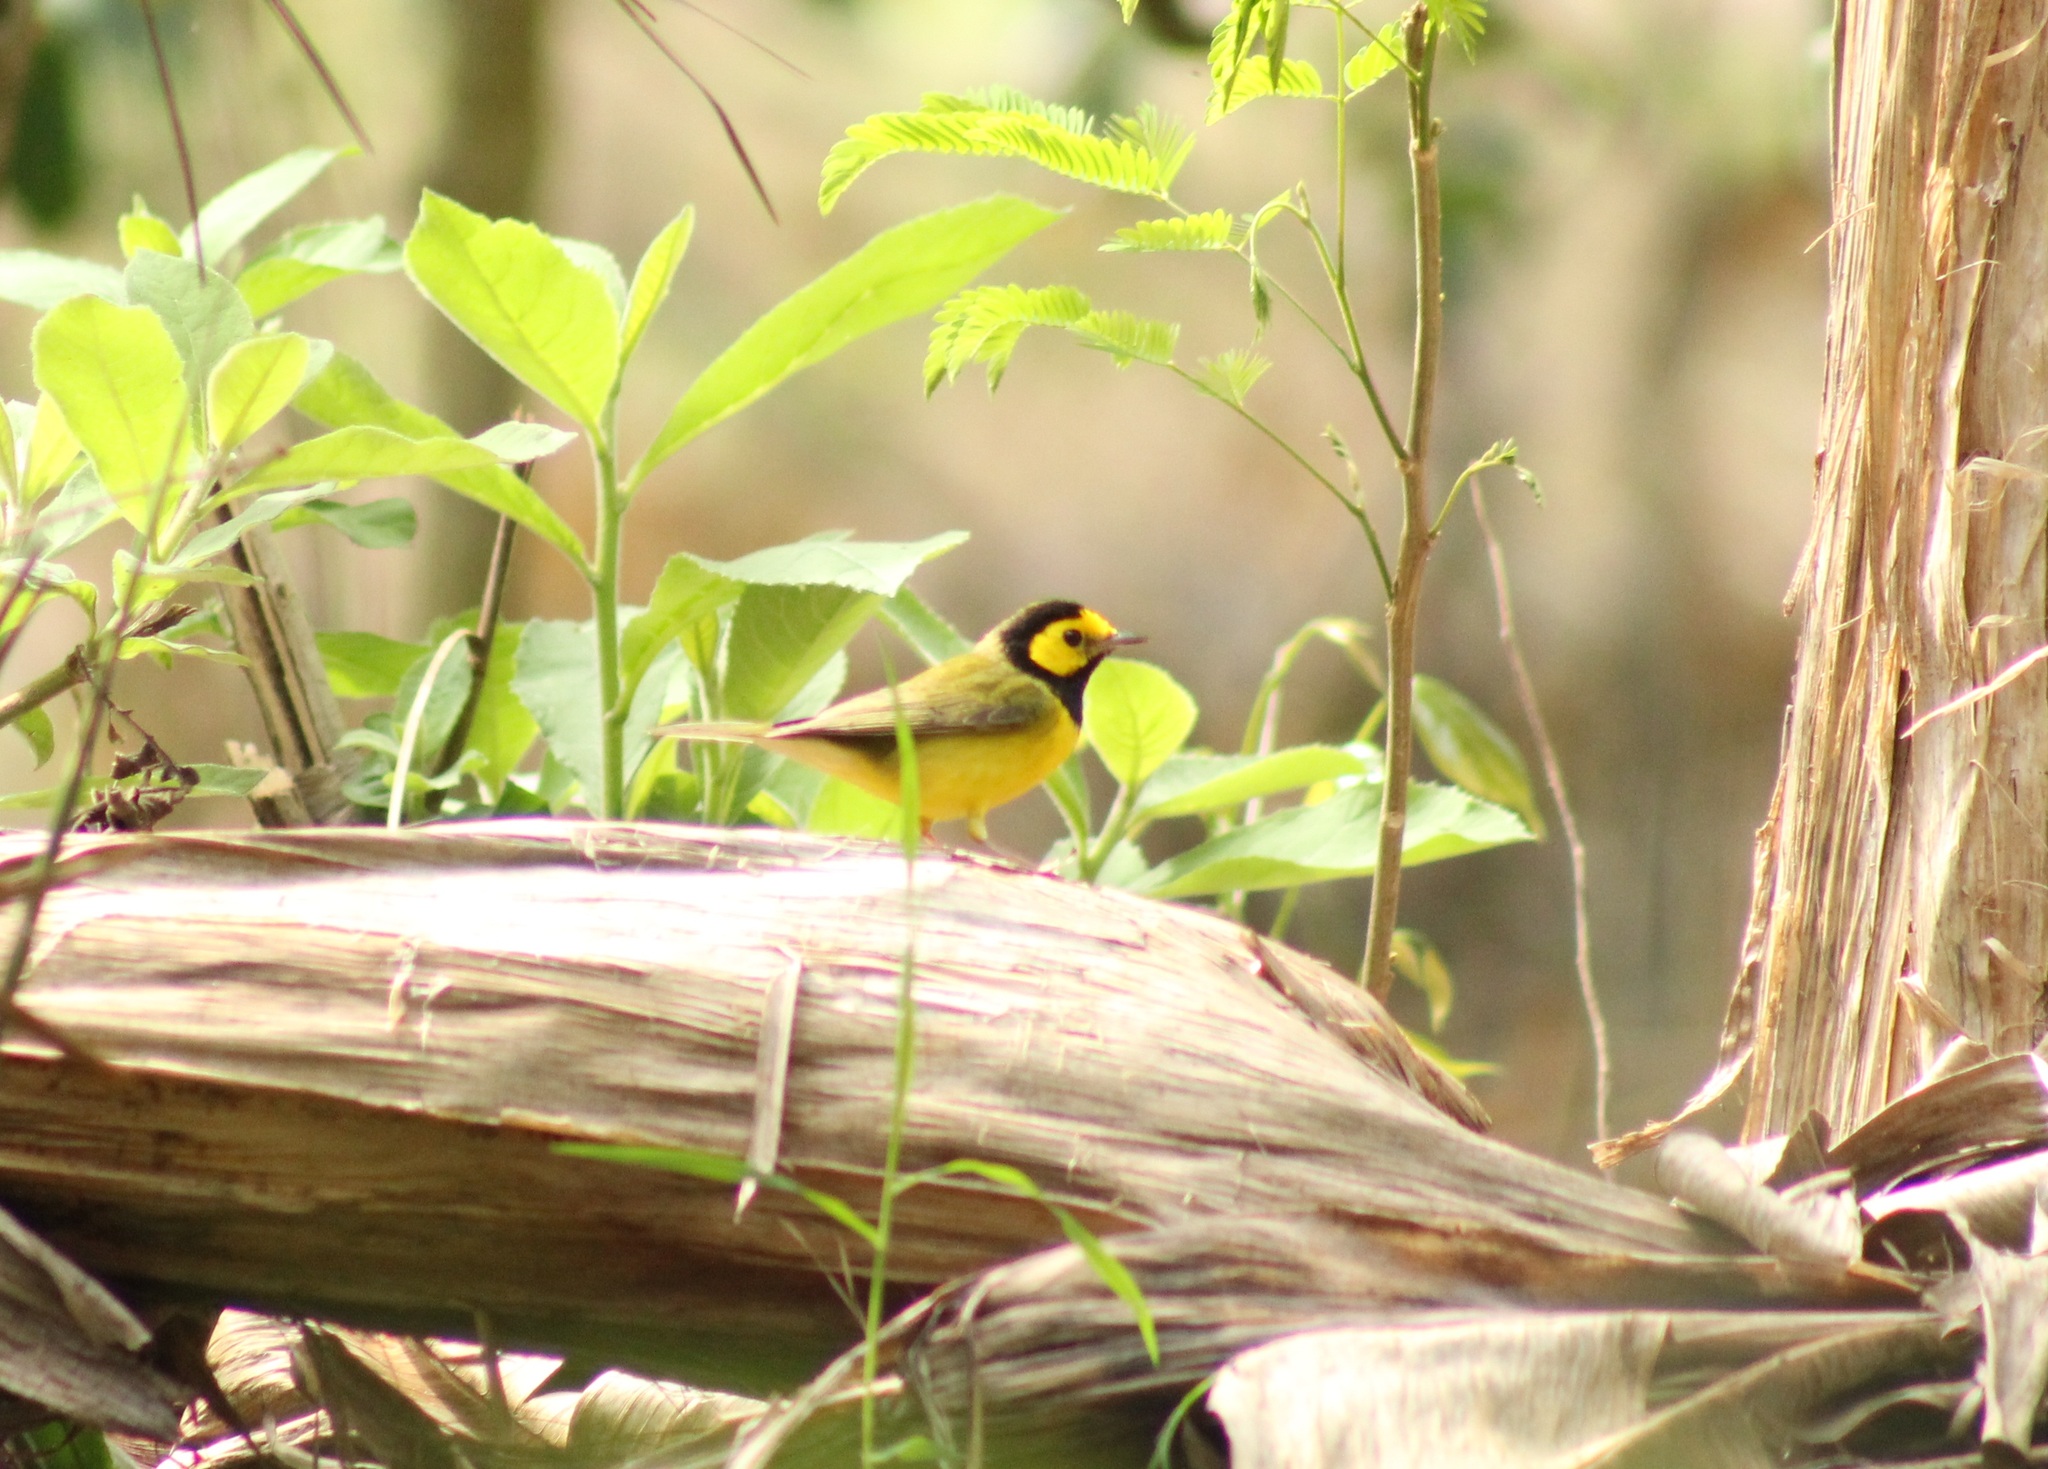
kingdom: Animalia
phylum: Chordata
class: Aves
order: Passeriformes
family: Parulidae
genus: Setophaga
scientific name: Setophaga citrina
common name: Hooded warbler
